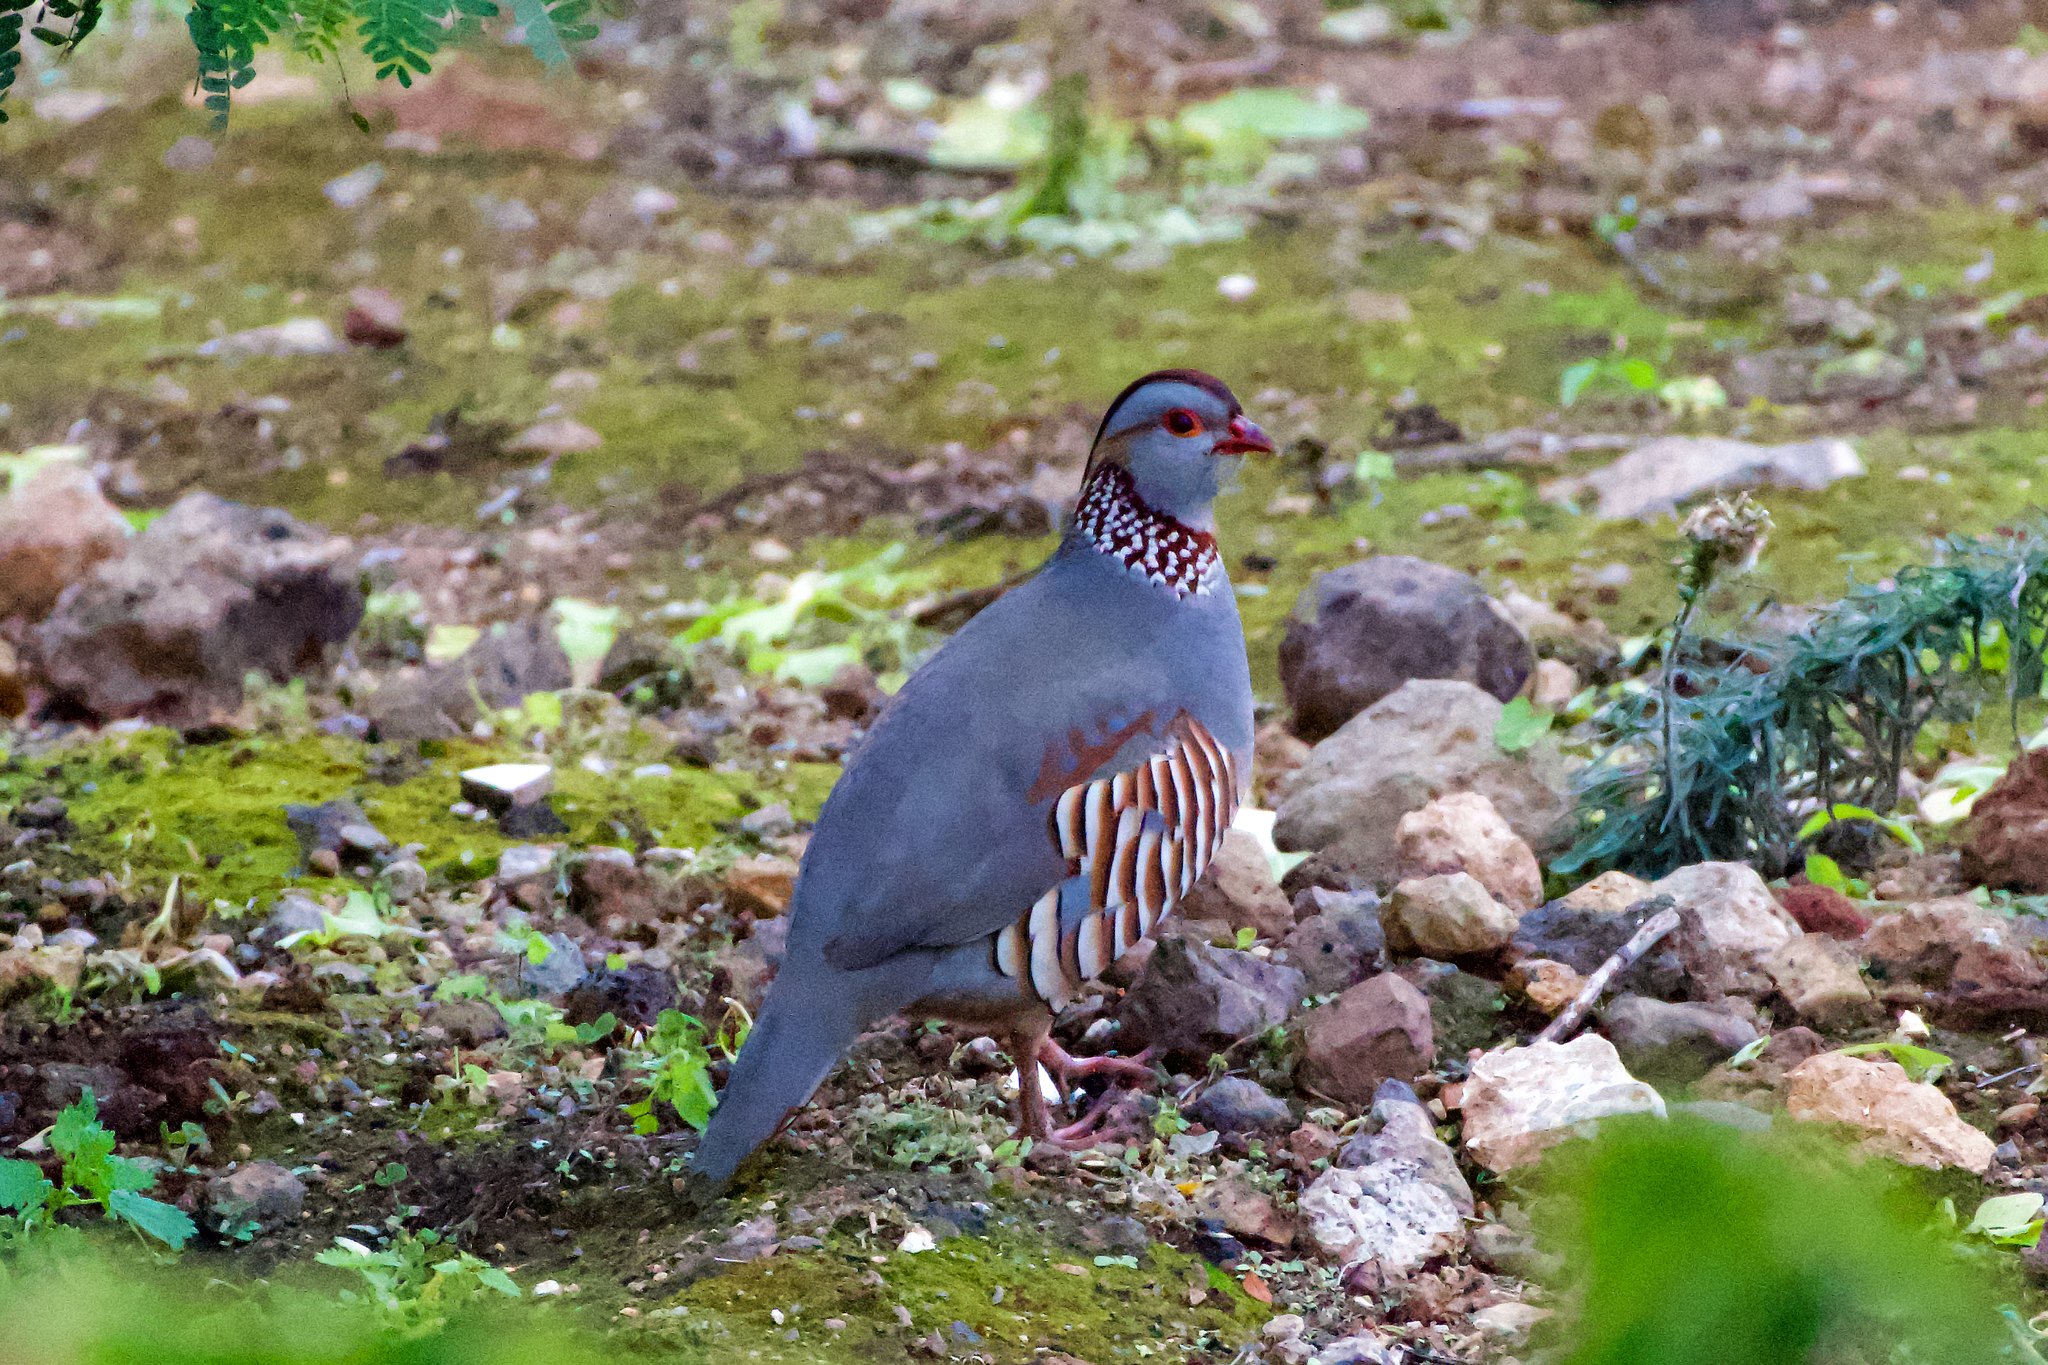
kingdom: Animalia
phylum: Chordata
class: Aves
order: Galliformes
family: Phasianidae
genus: Alectoris
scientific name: Alectoris barbara
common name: Barbary partridge
